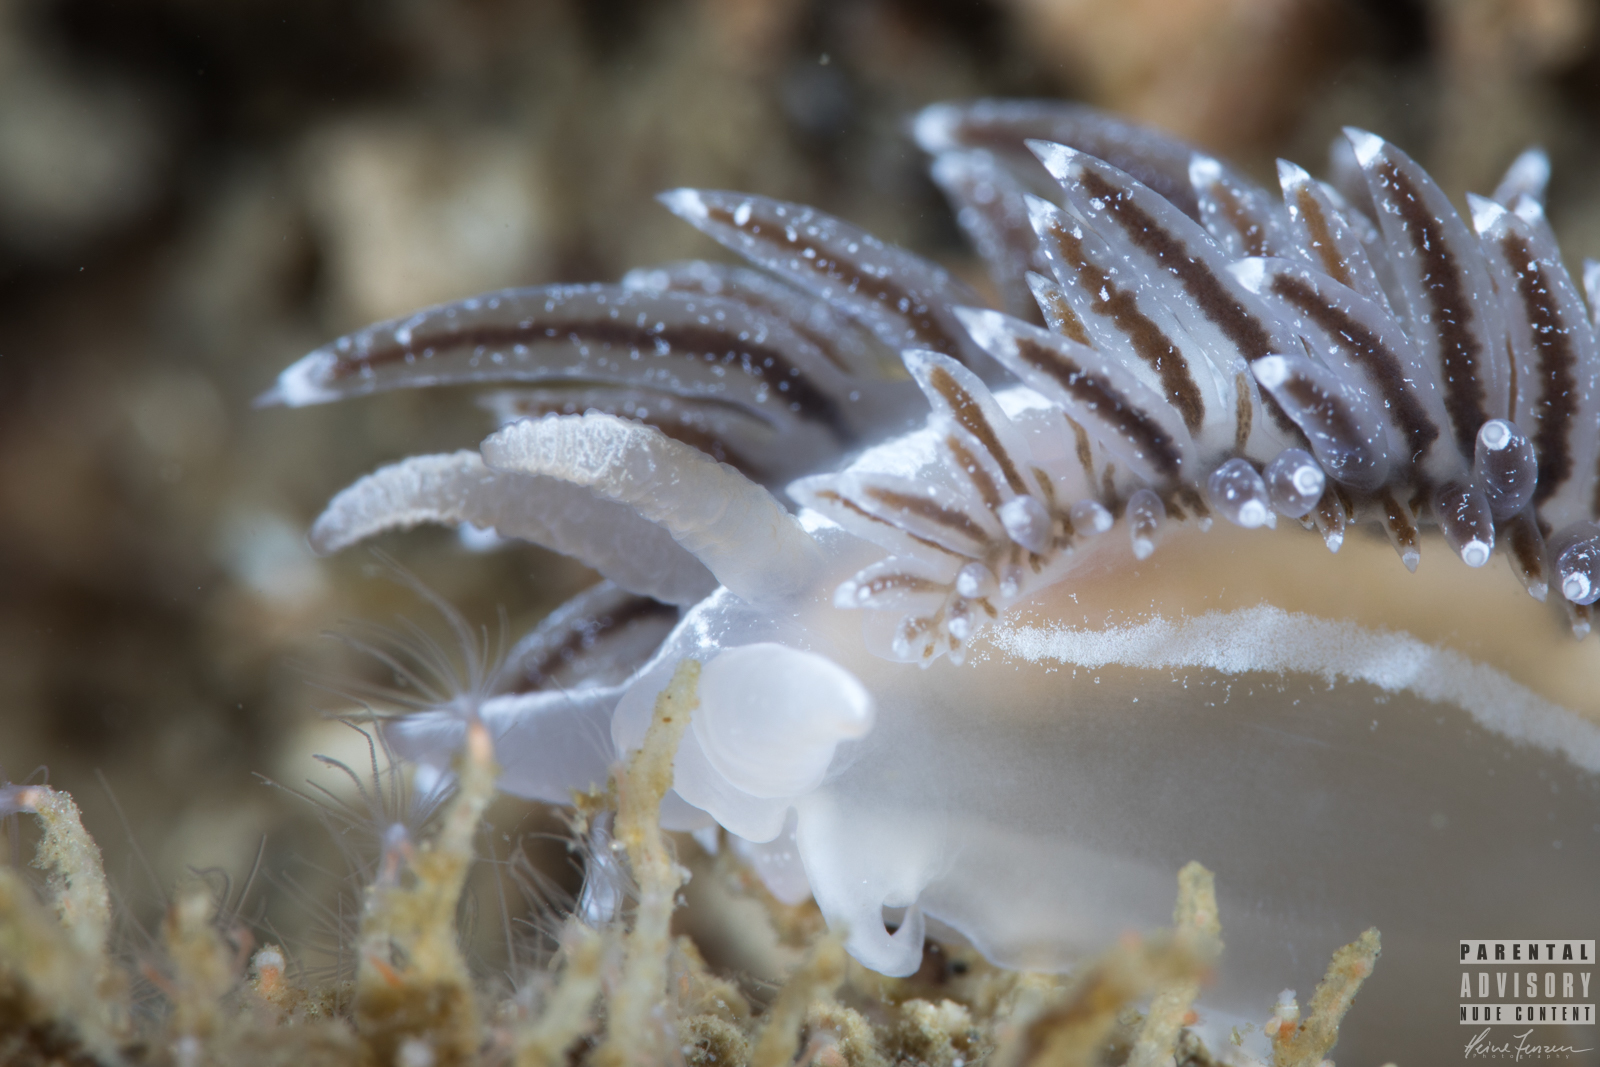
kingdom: Animalia
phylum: Mollusca
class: Gastropoda
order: Nudibranchia
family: Coryphellidae
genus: Coryphella
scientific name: Coryphella monicae
